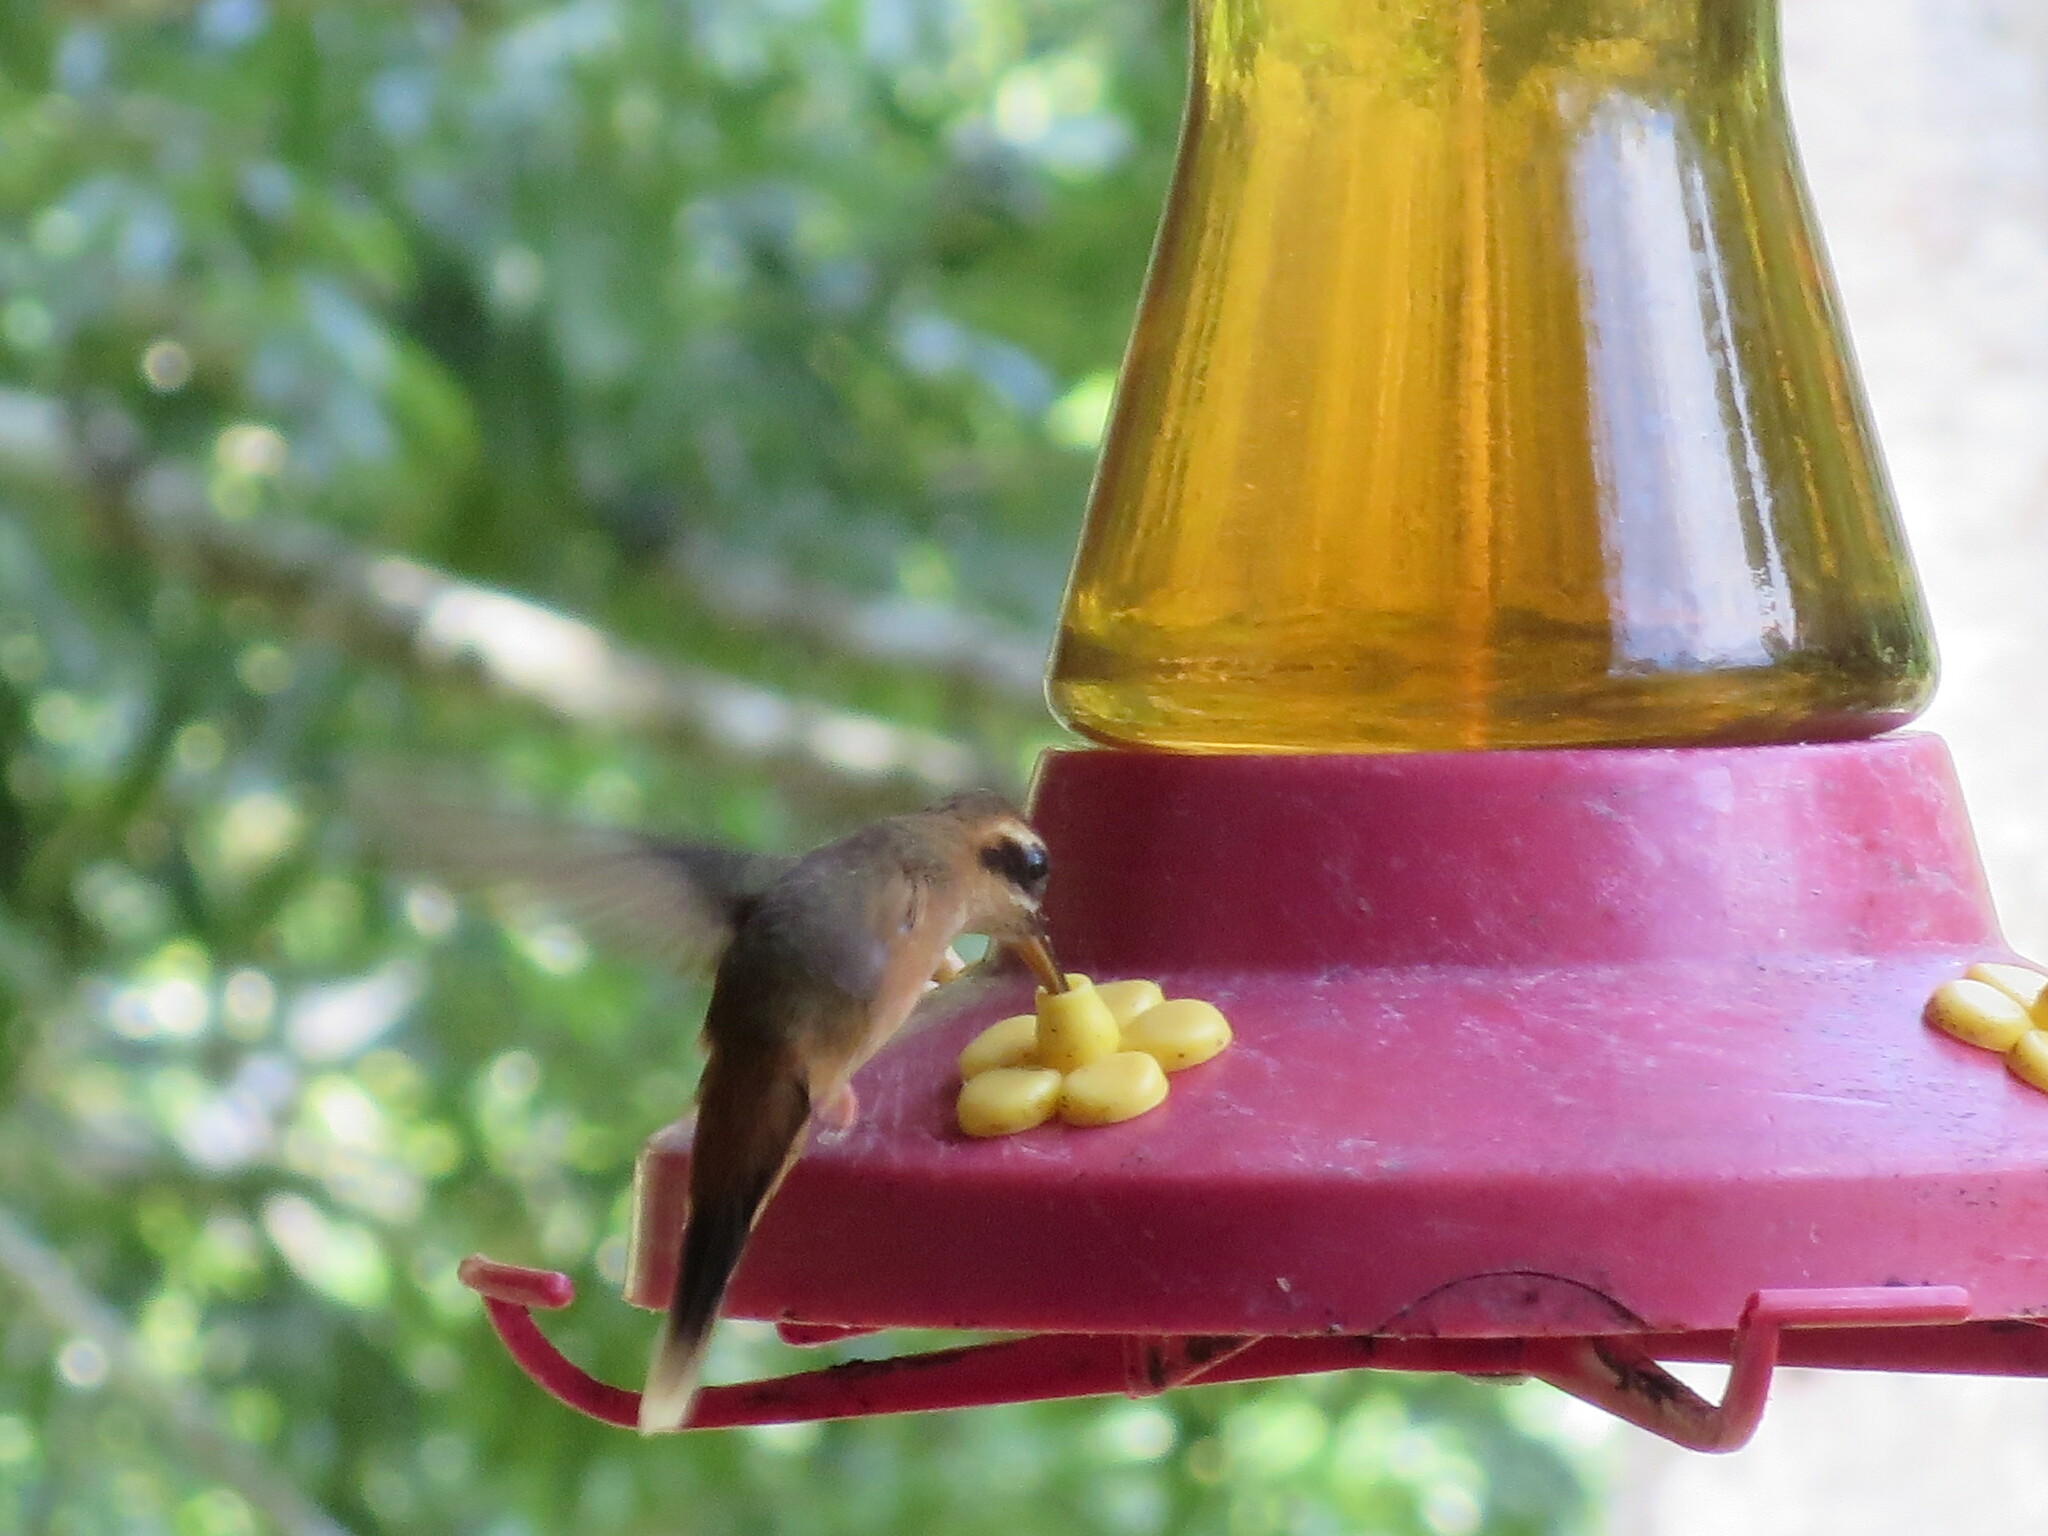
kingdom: Animalia
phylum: Chordata
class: Aves
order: Apodiformes
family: Trochilidae
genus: Phaethornis
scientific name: Phaethornis striigularis
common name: Stripe-throated hermit
